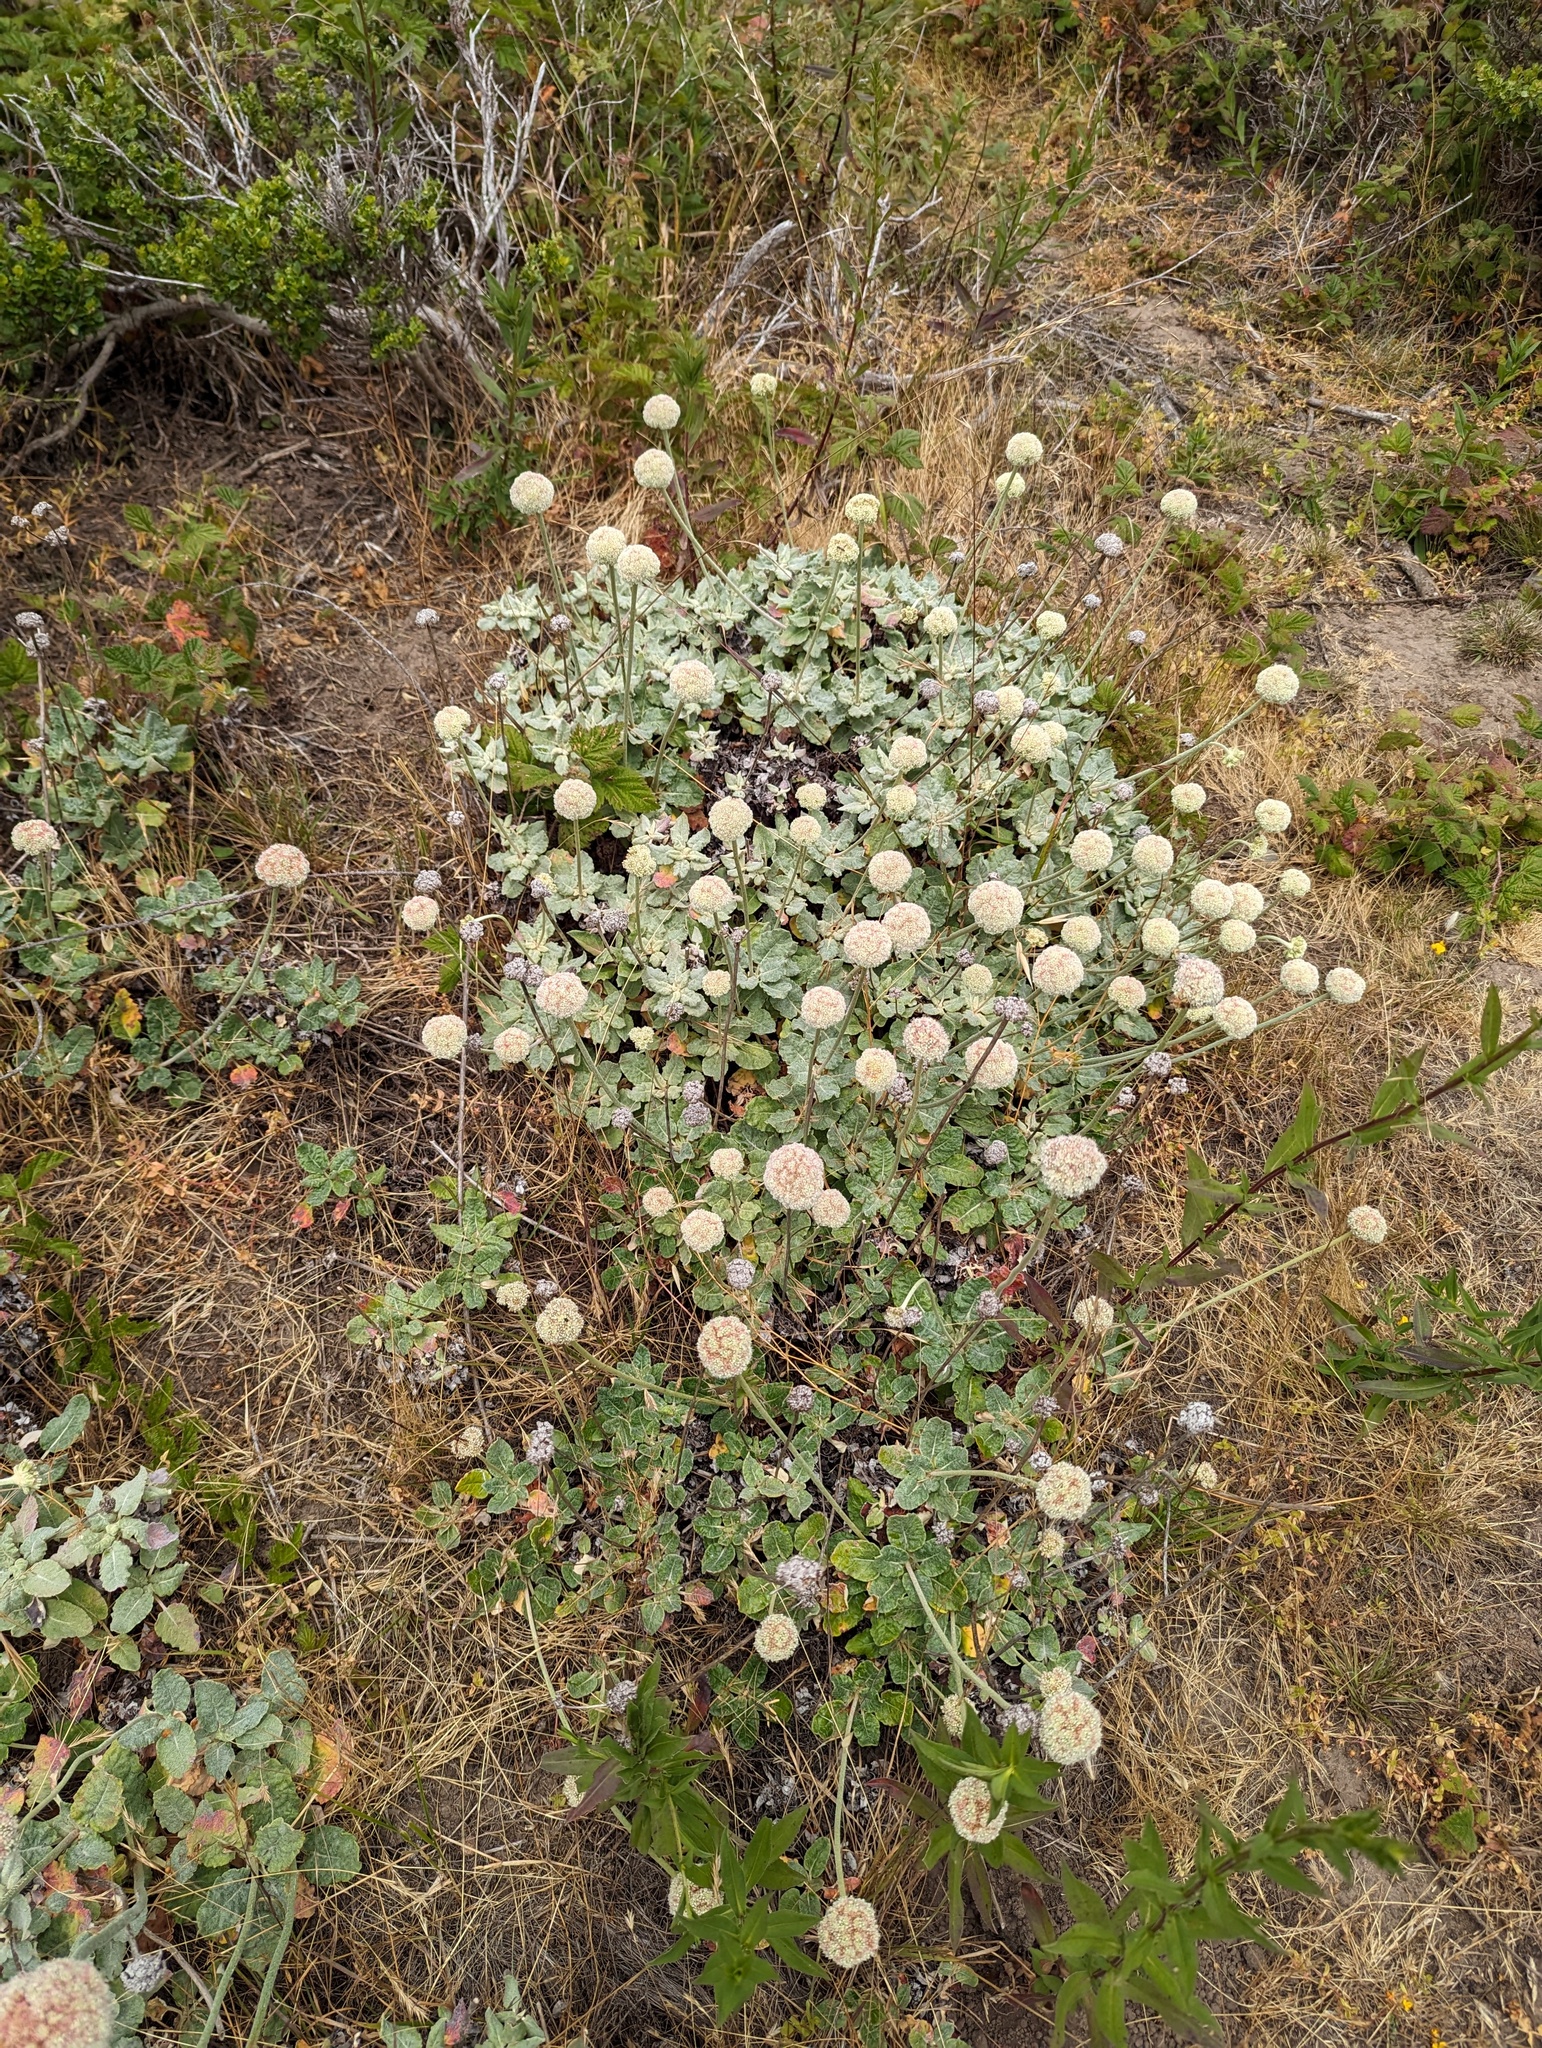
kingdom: Plantae
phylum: Tracheophyta
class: Magnoliopsida
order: Caryophyllales
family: Polygonaceae
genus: Eriogonum
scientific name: Eriogonum latifolium
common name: Seaside wild buckwheat
